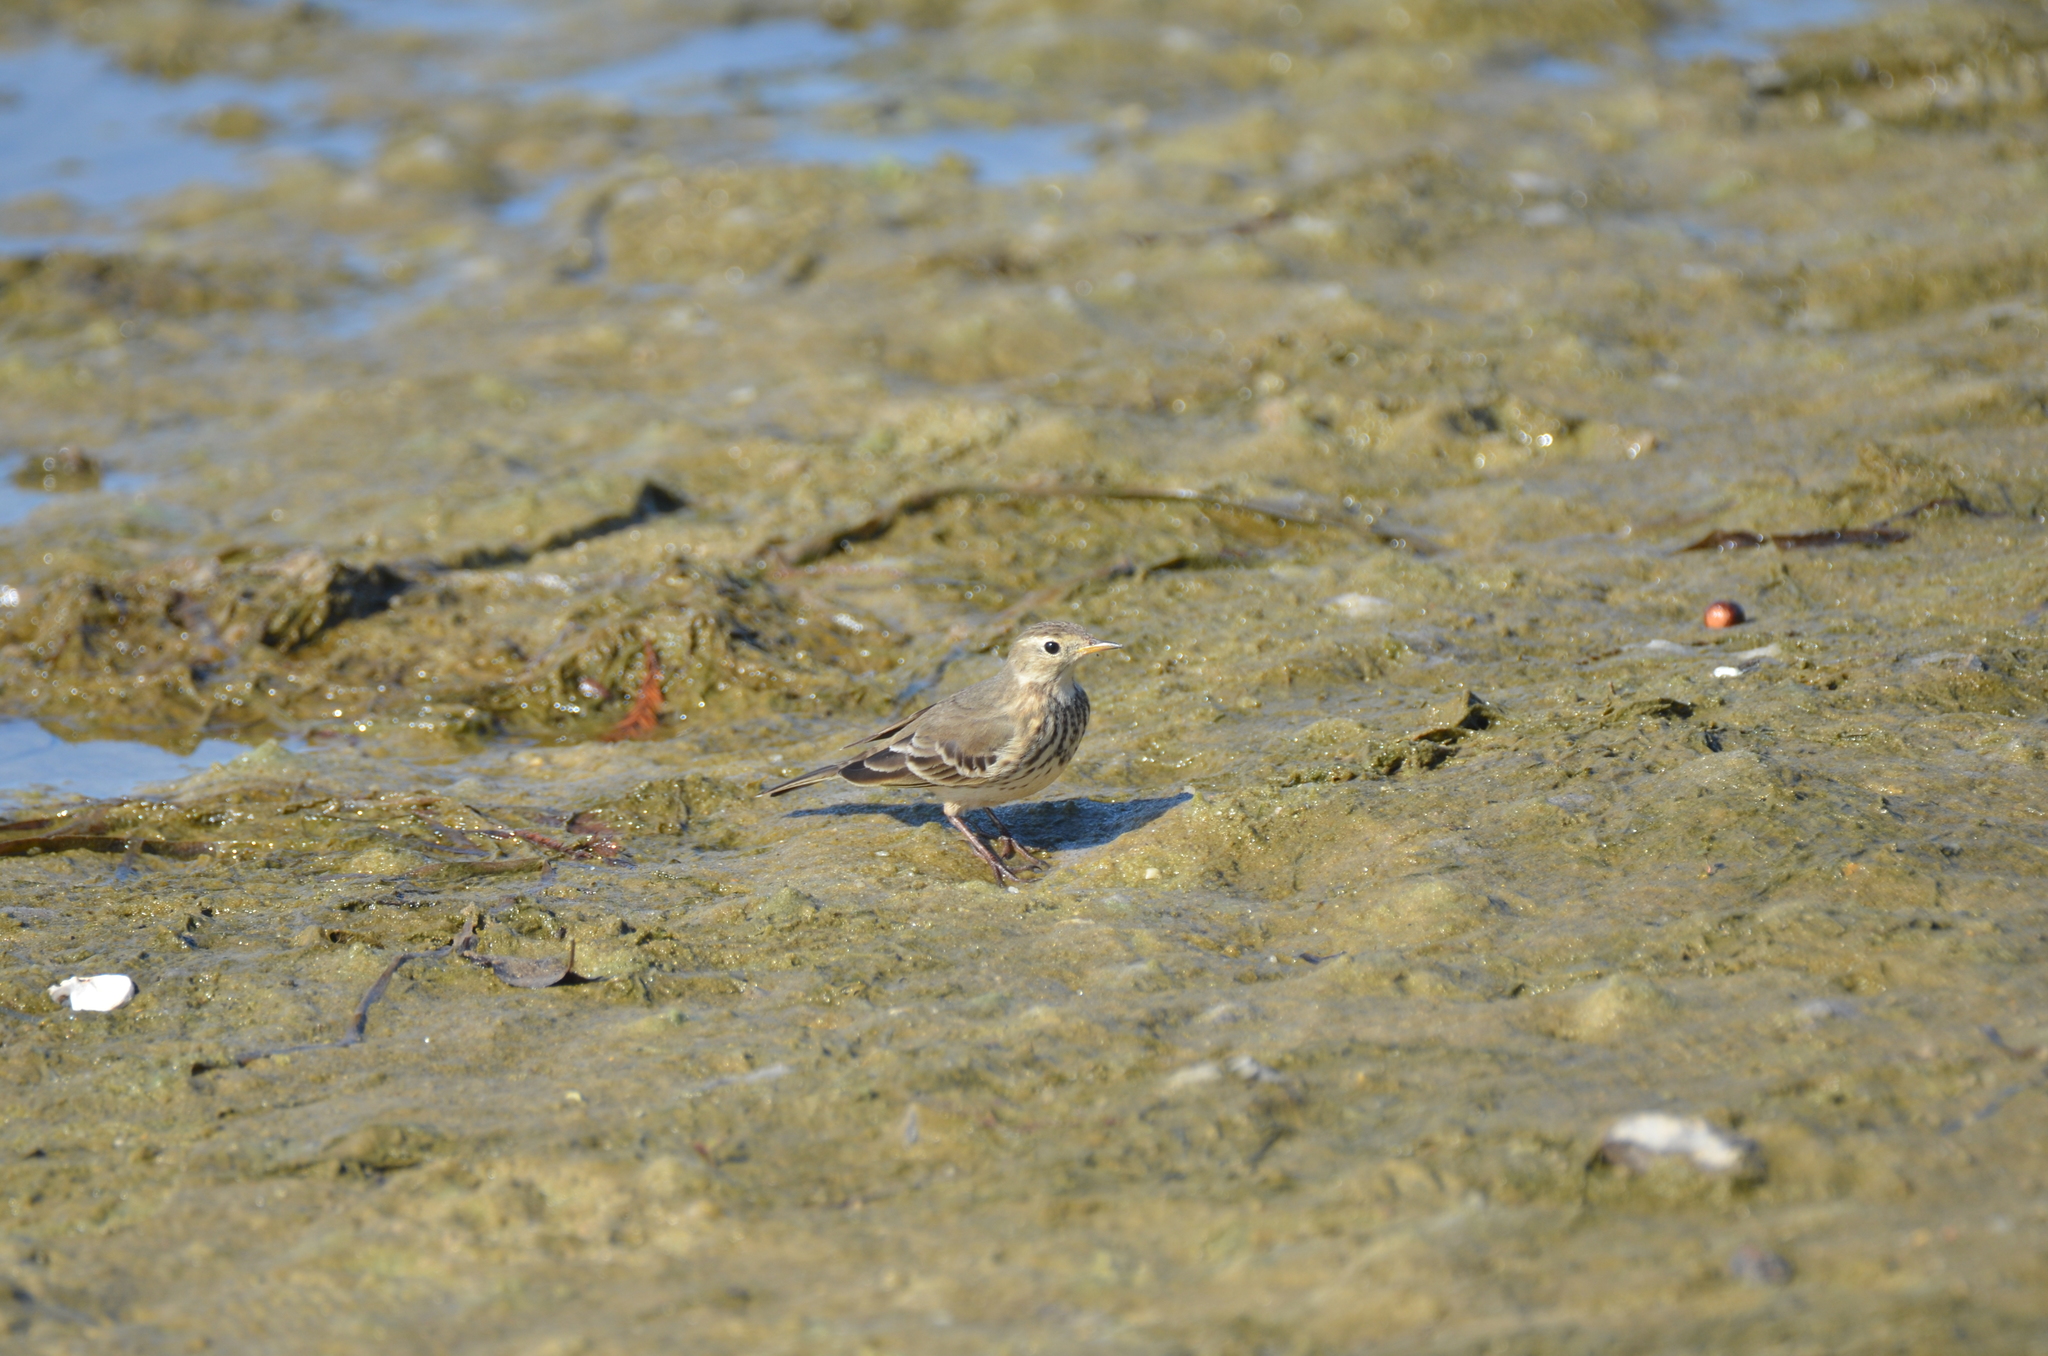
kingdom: Animalia
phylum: Chordata
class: Aves
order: Passeriformes
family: Motacillidae
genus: Anthus
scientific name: Anthus rubescens
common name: Buff-bellied pipit
